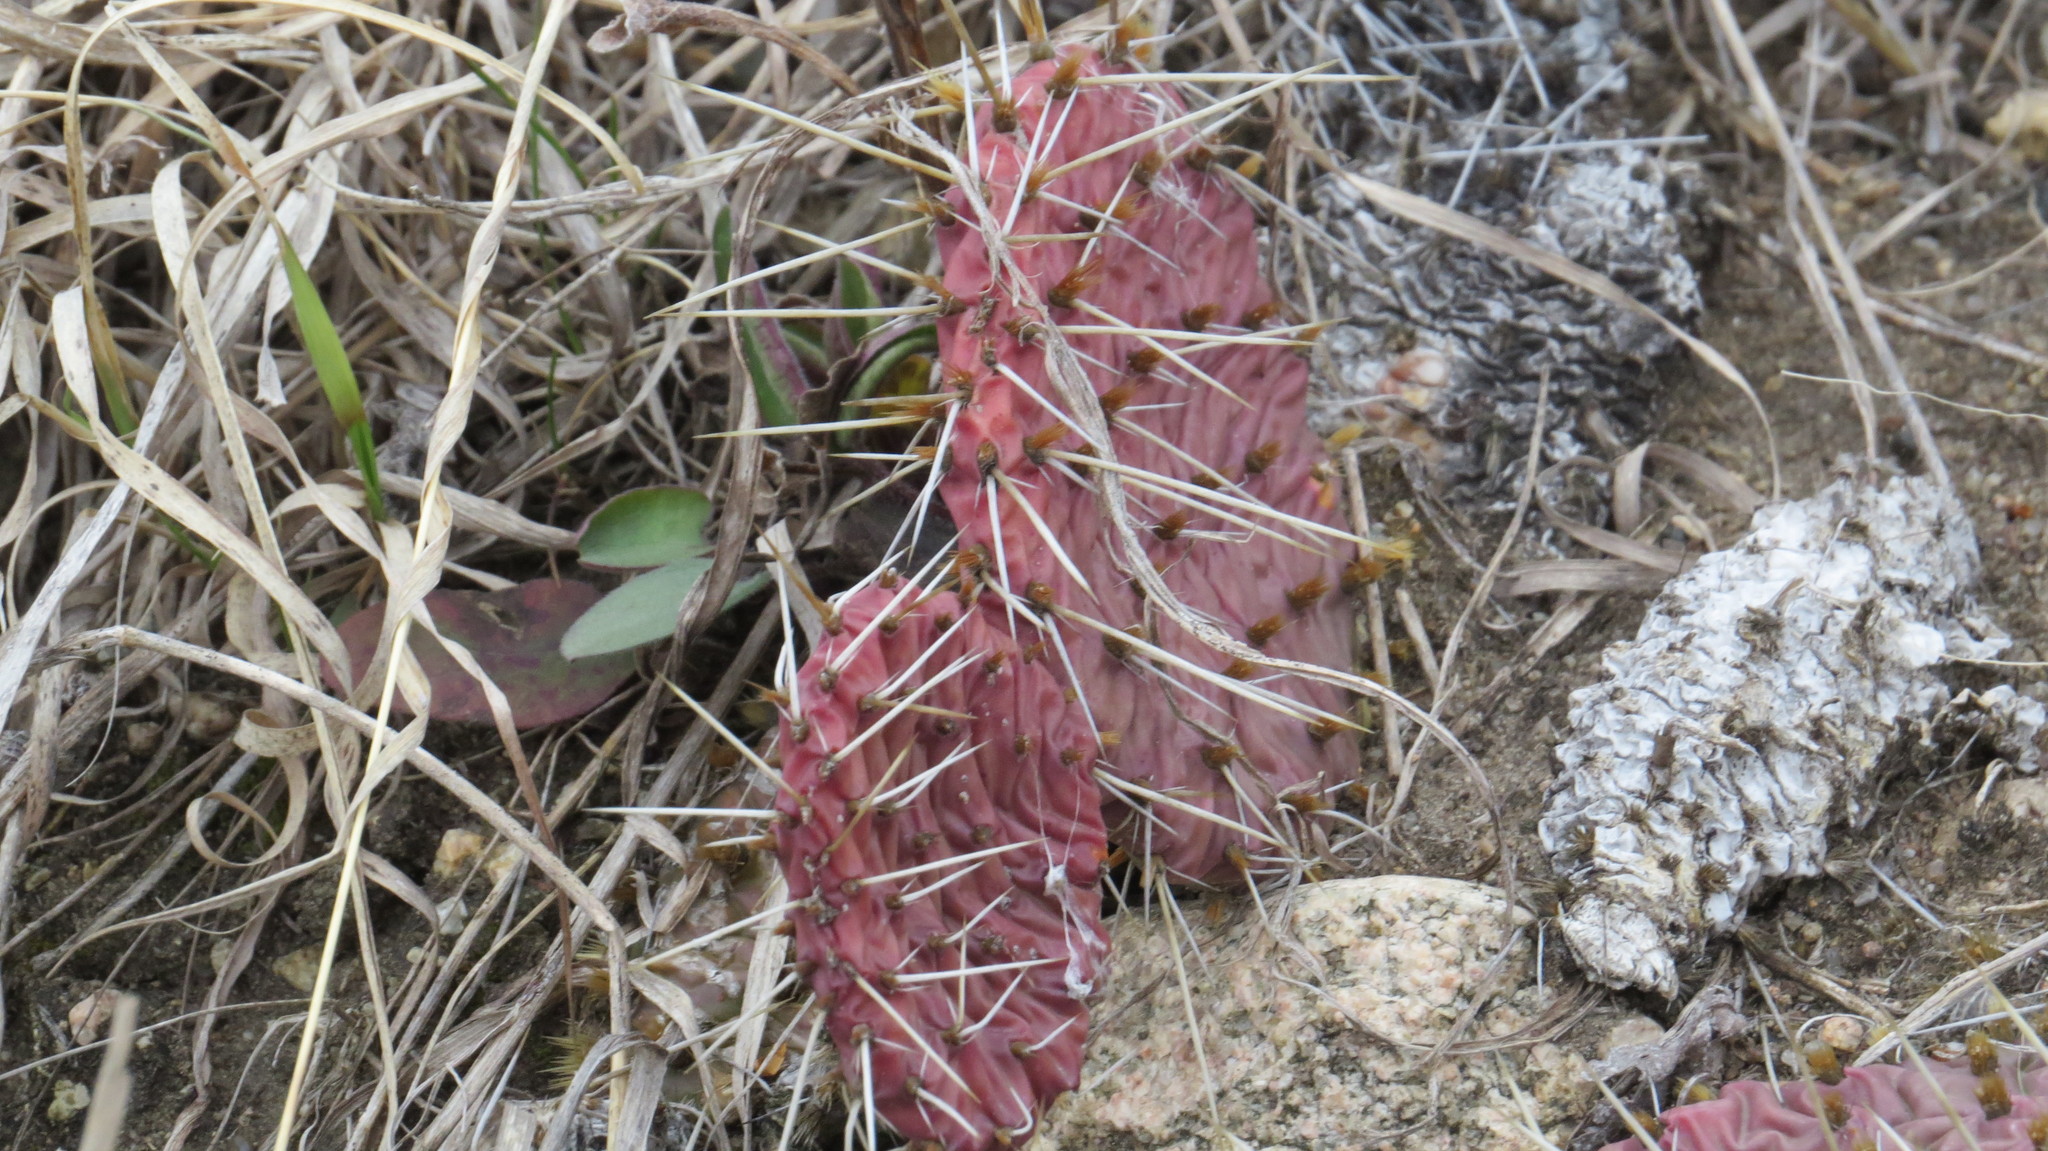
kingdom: Plantae
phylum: Tracheophyta
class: Magnoliopsida
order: Caryophyllales
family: Cactaceae
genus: Opuntia
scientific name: Opuntia macrorhiza
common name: Grassland pricklypear
